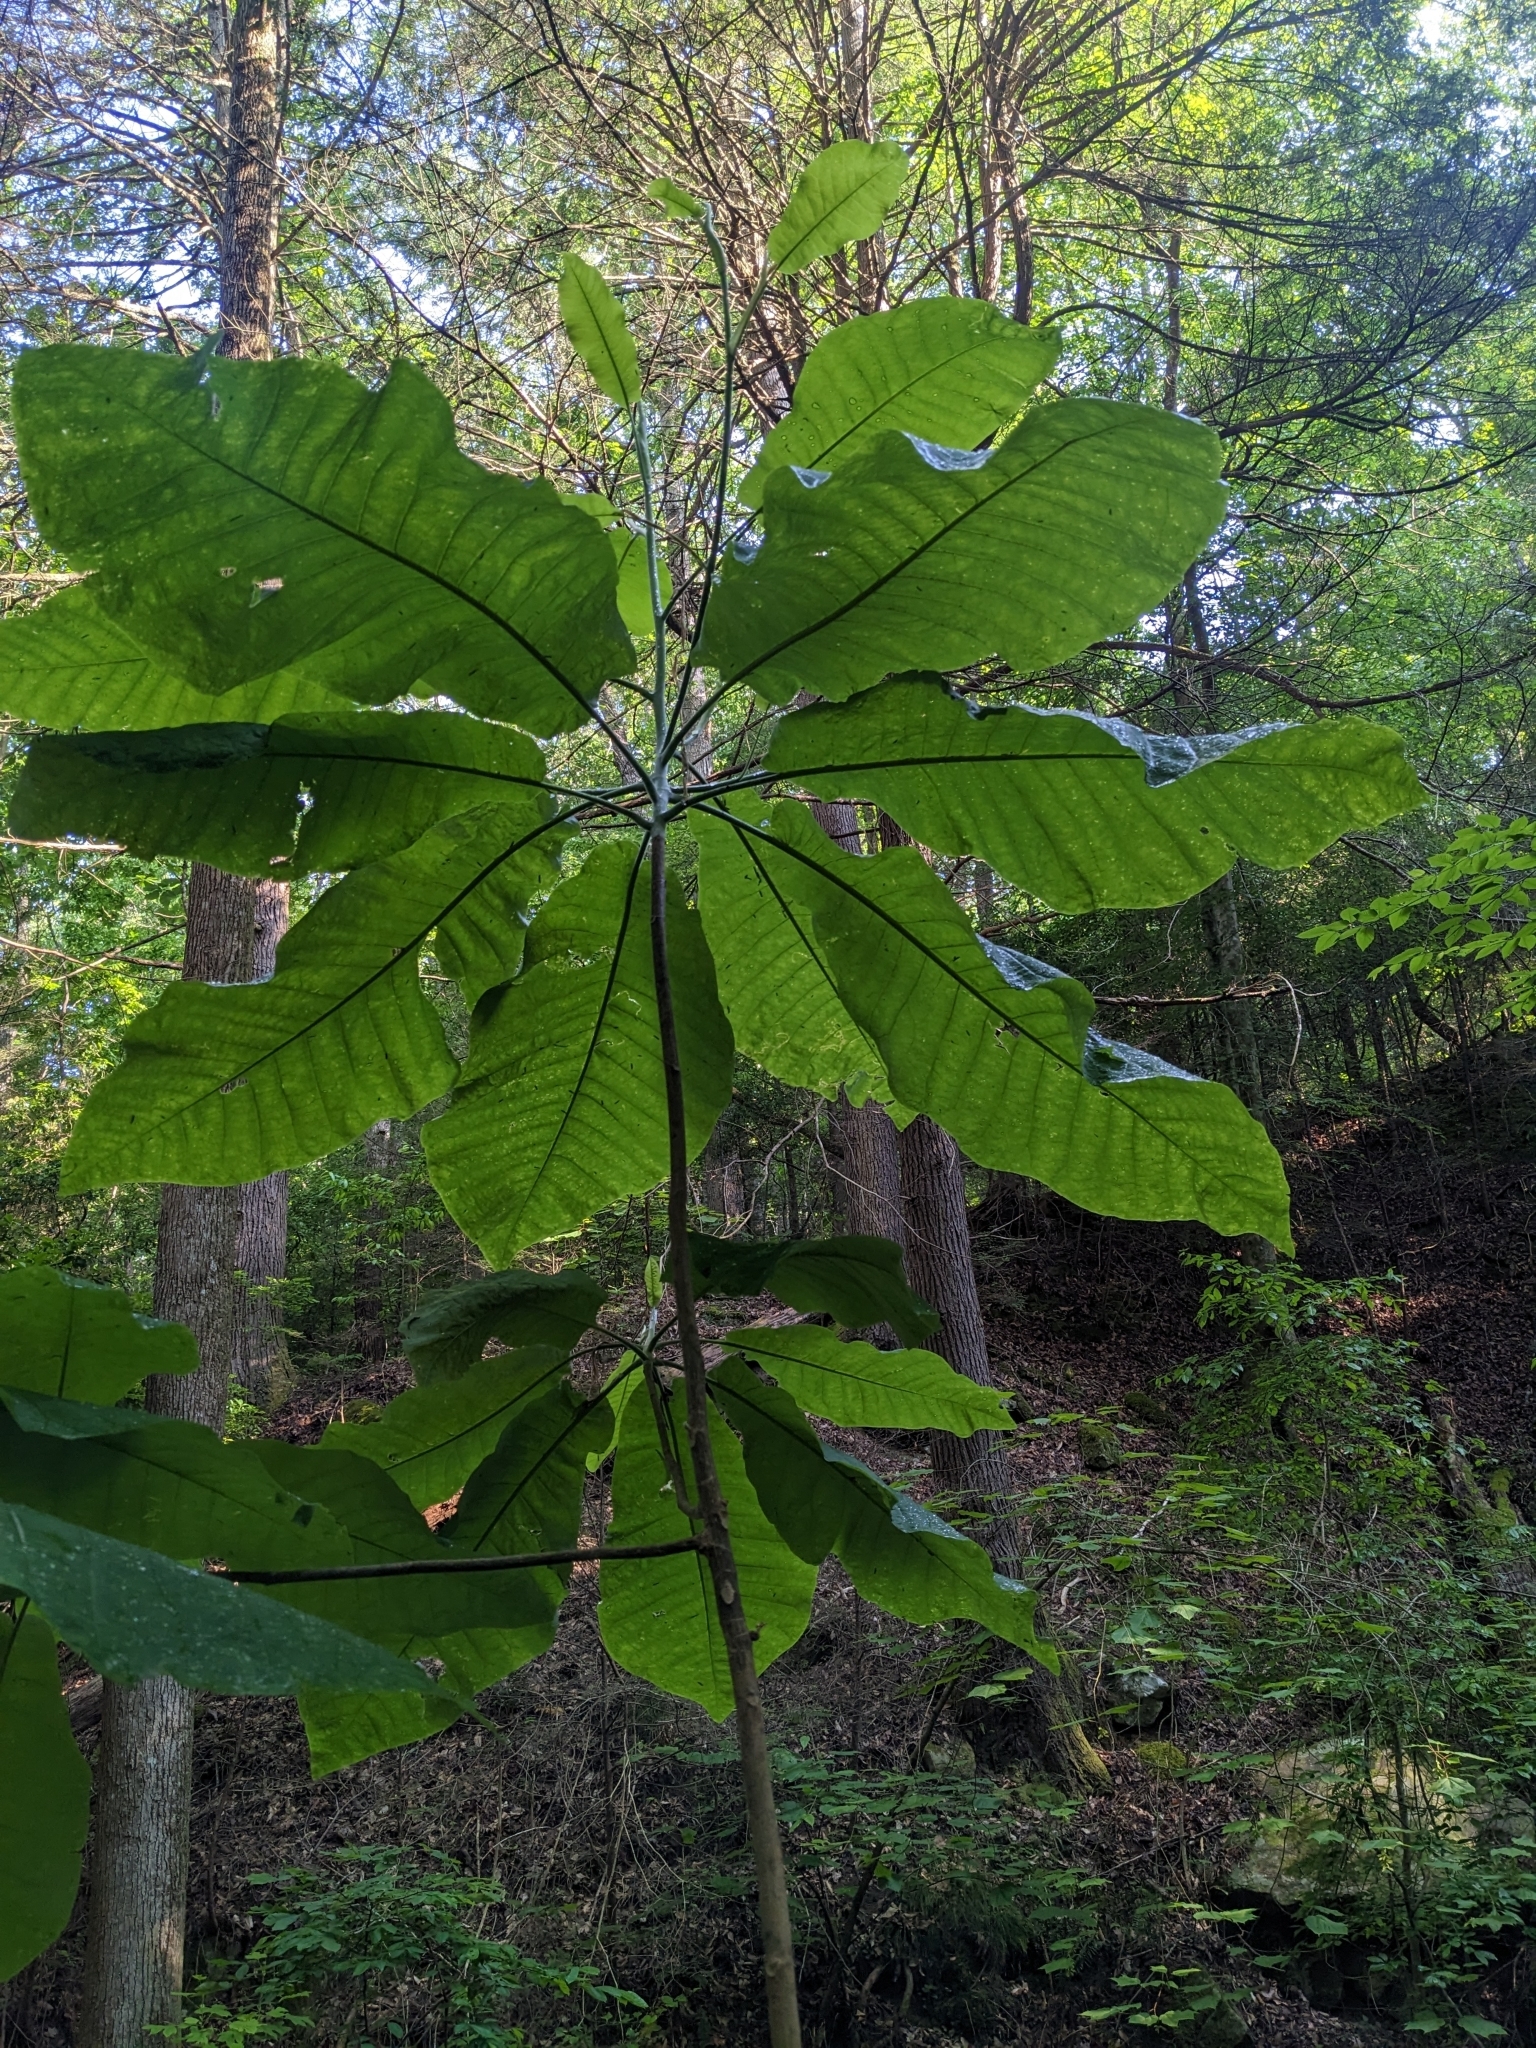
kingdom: Plantae
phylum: Tracheophyta
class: Magnoliopsida
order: Magnoliales
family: Magnoliaceae
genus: Magnolia
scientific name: Magnolia macrophylla
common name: Big-leaf magnolia
